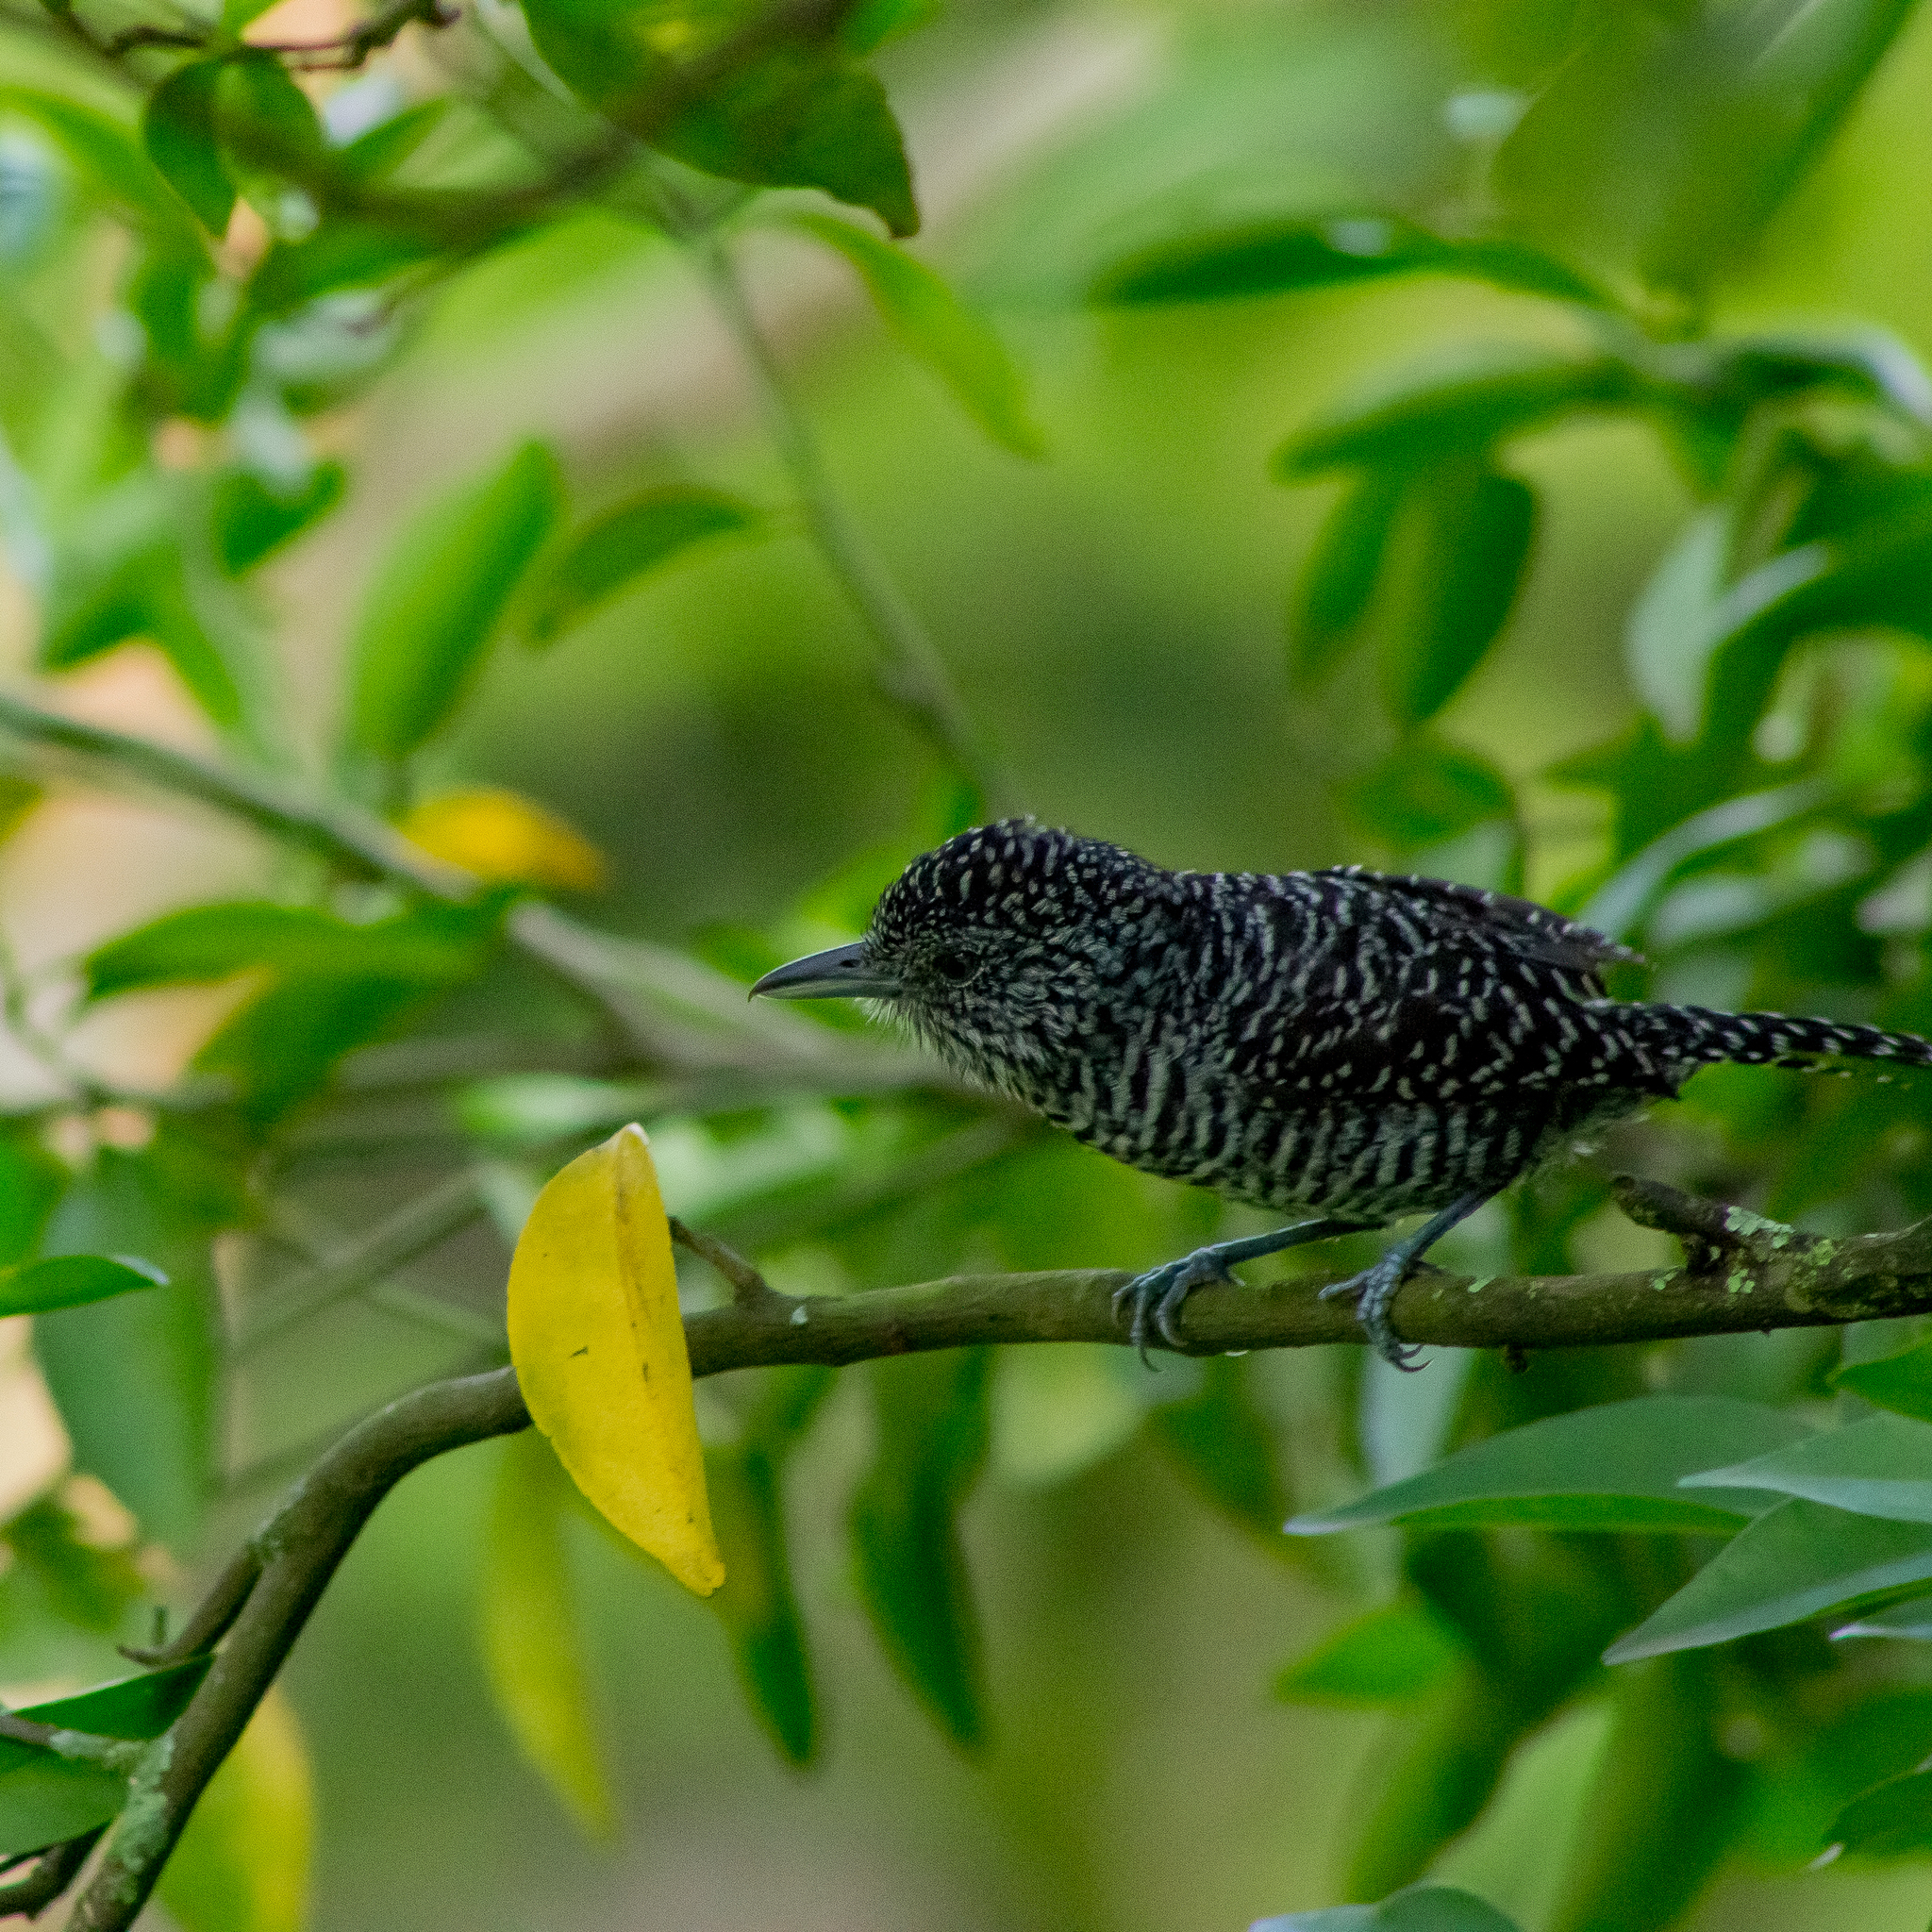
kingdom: Animalia
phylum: Chordata
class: Aves
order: Passeriformes
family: Thamnophilidae
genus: Thamnophilus
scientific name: Thamnophilus multistriatus
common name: Bar-crested antshrike
